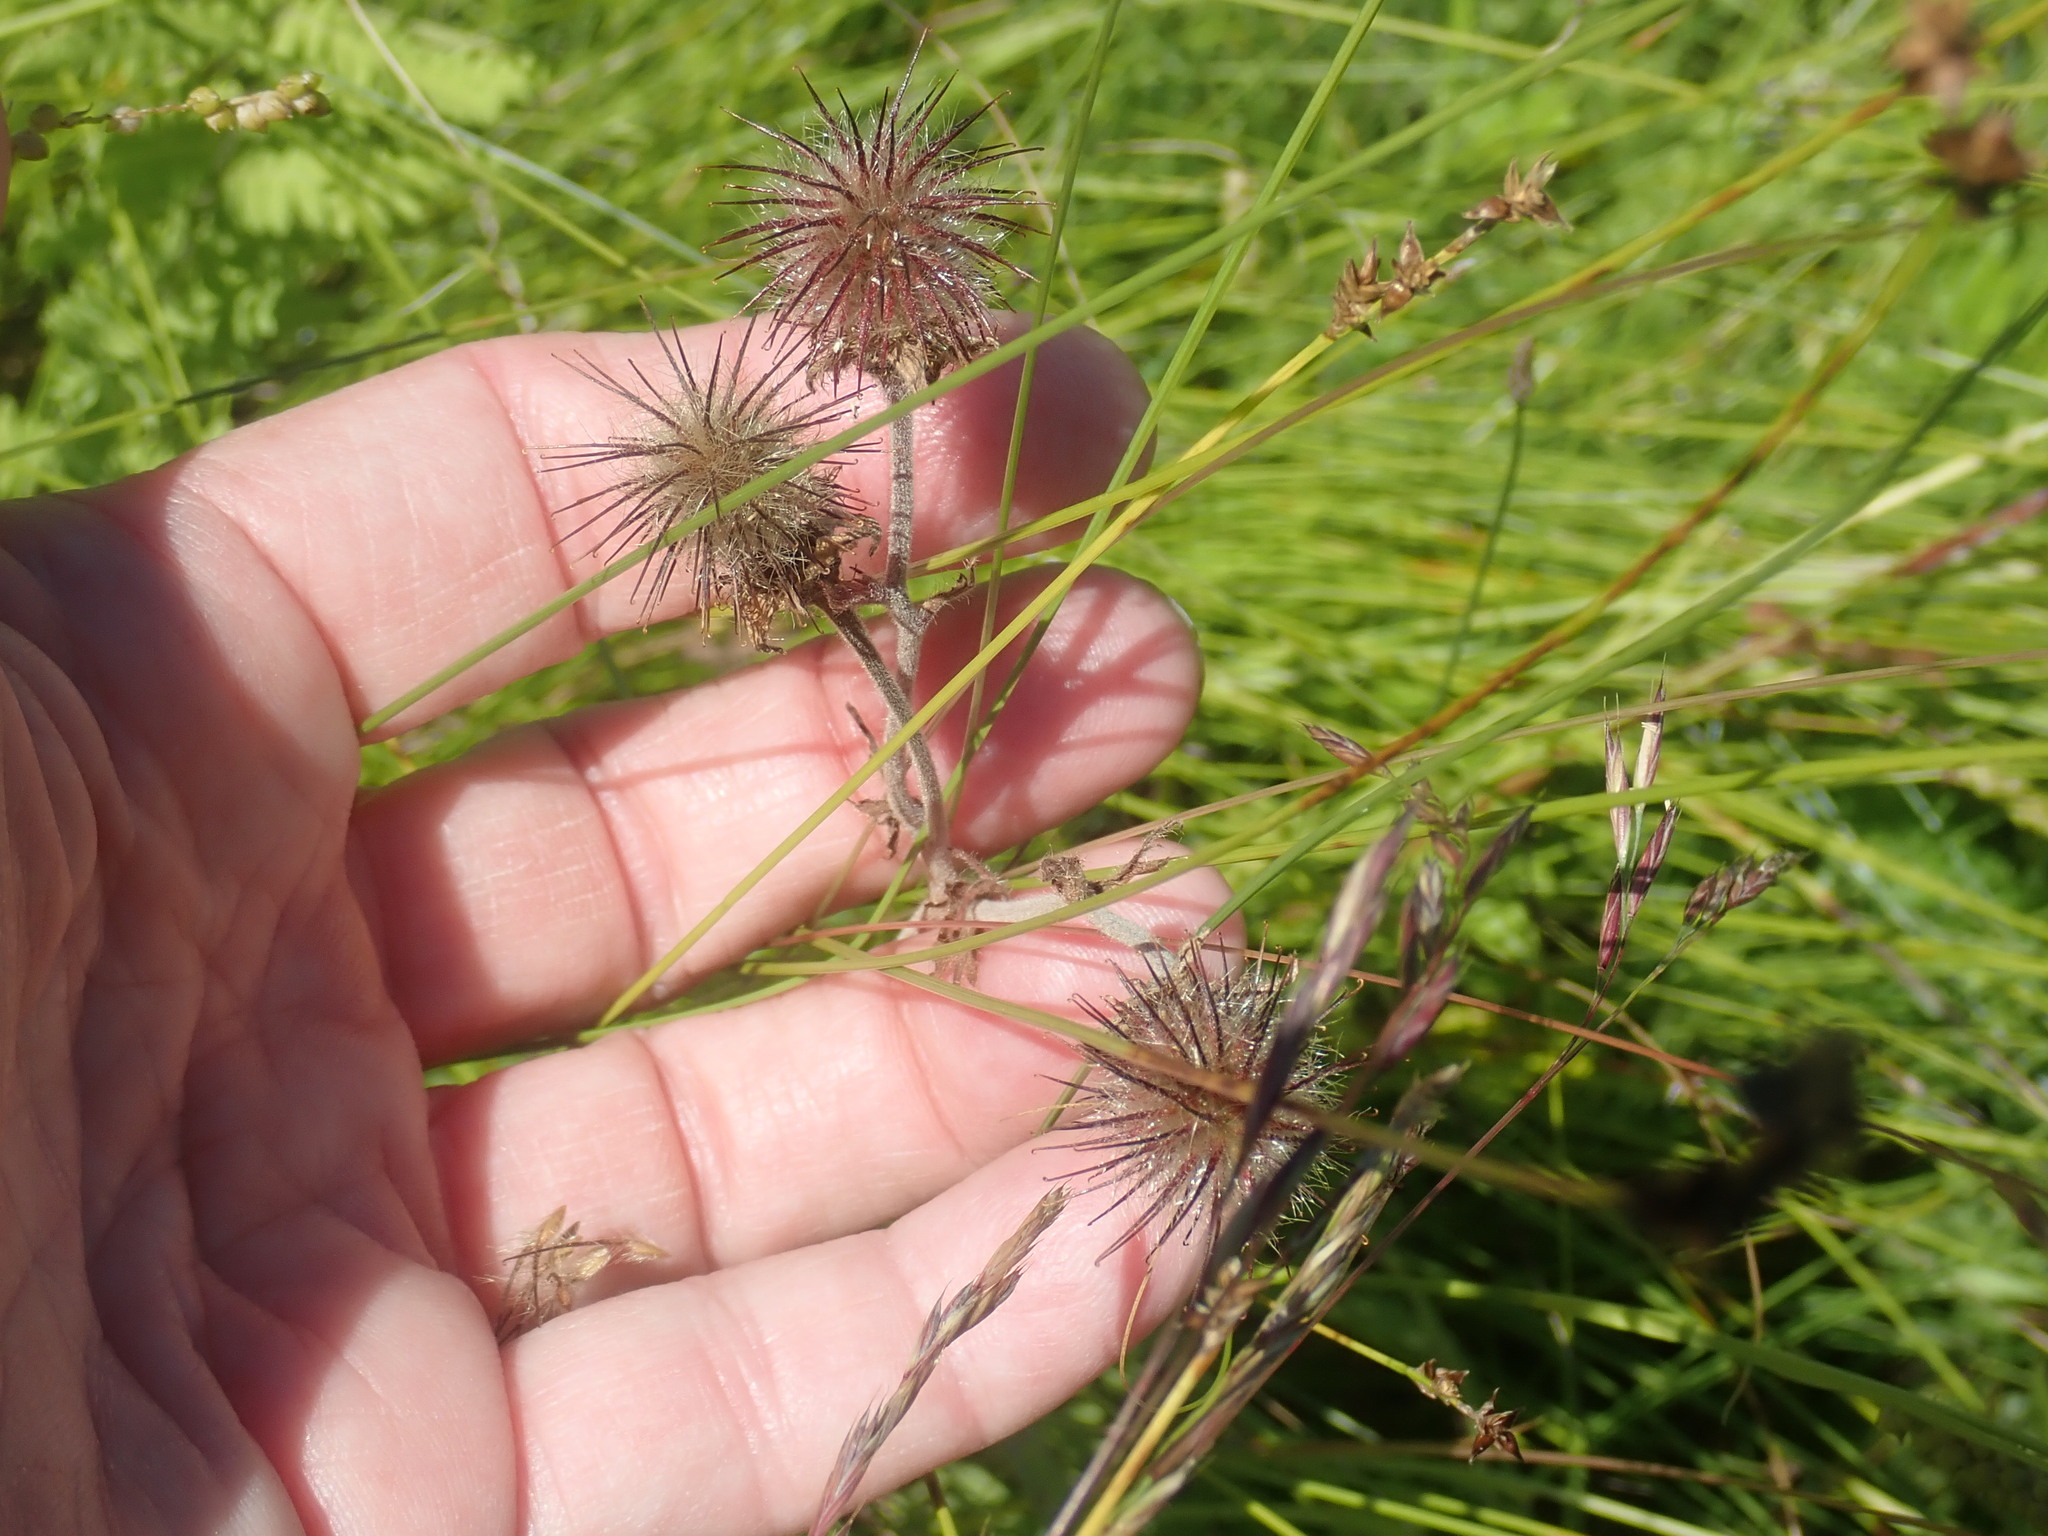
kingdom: Plantae
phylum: Tracheophyta
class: Magnoliopsida
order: Rosales
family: Rosaceae
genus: Geum
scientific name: Geum rivale
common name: Water avens
